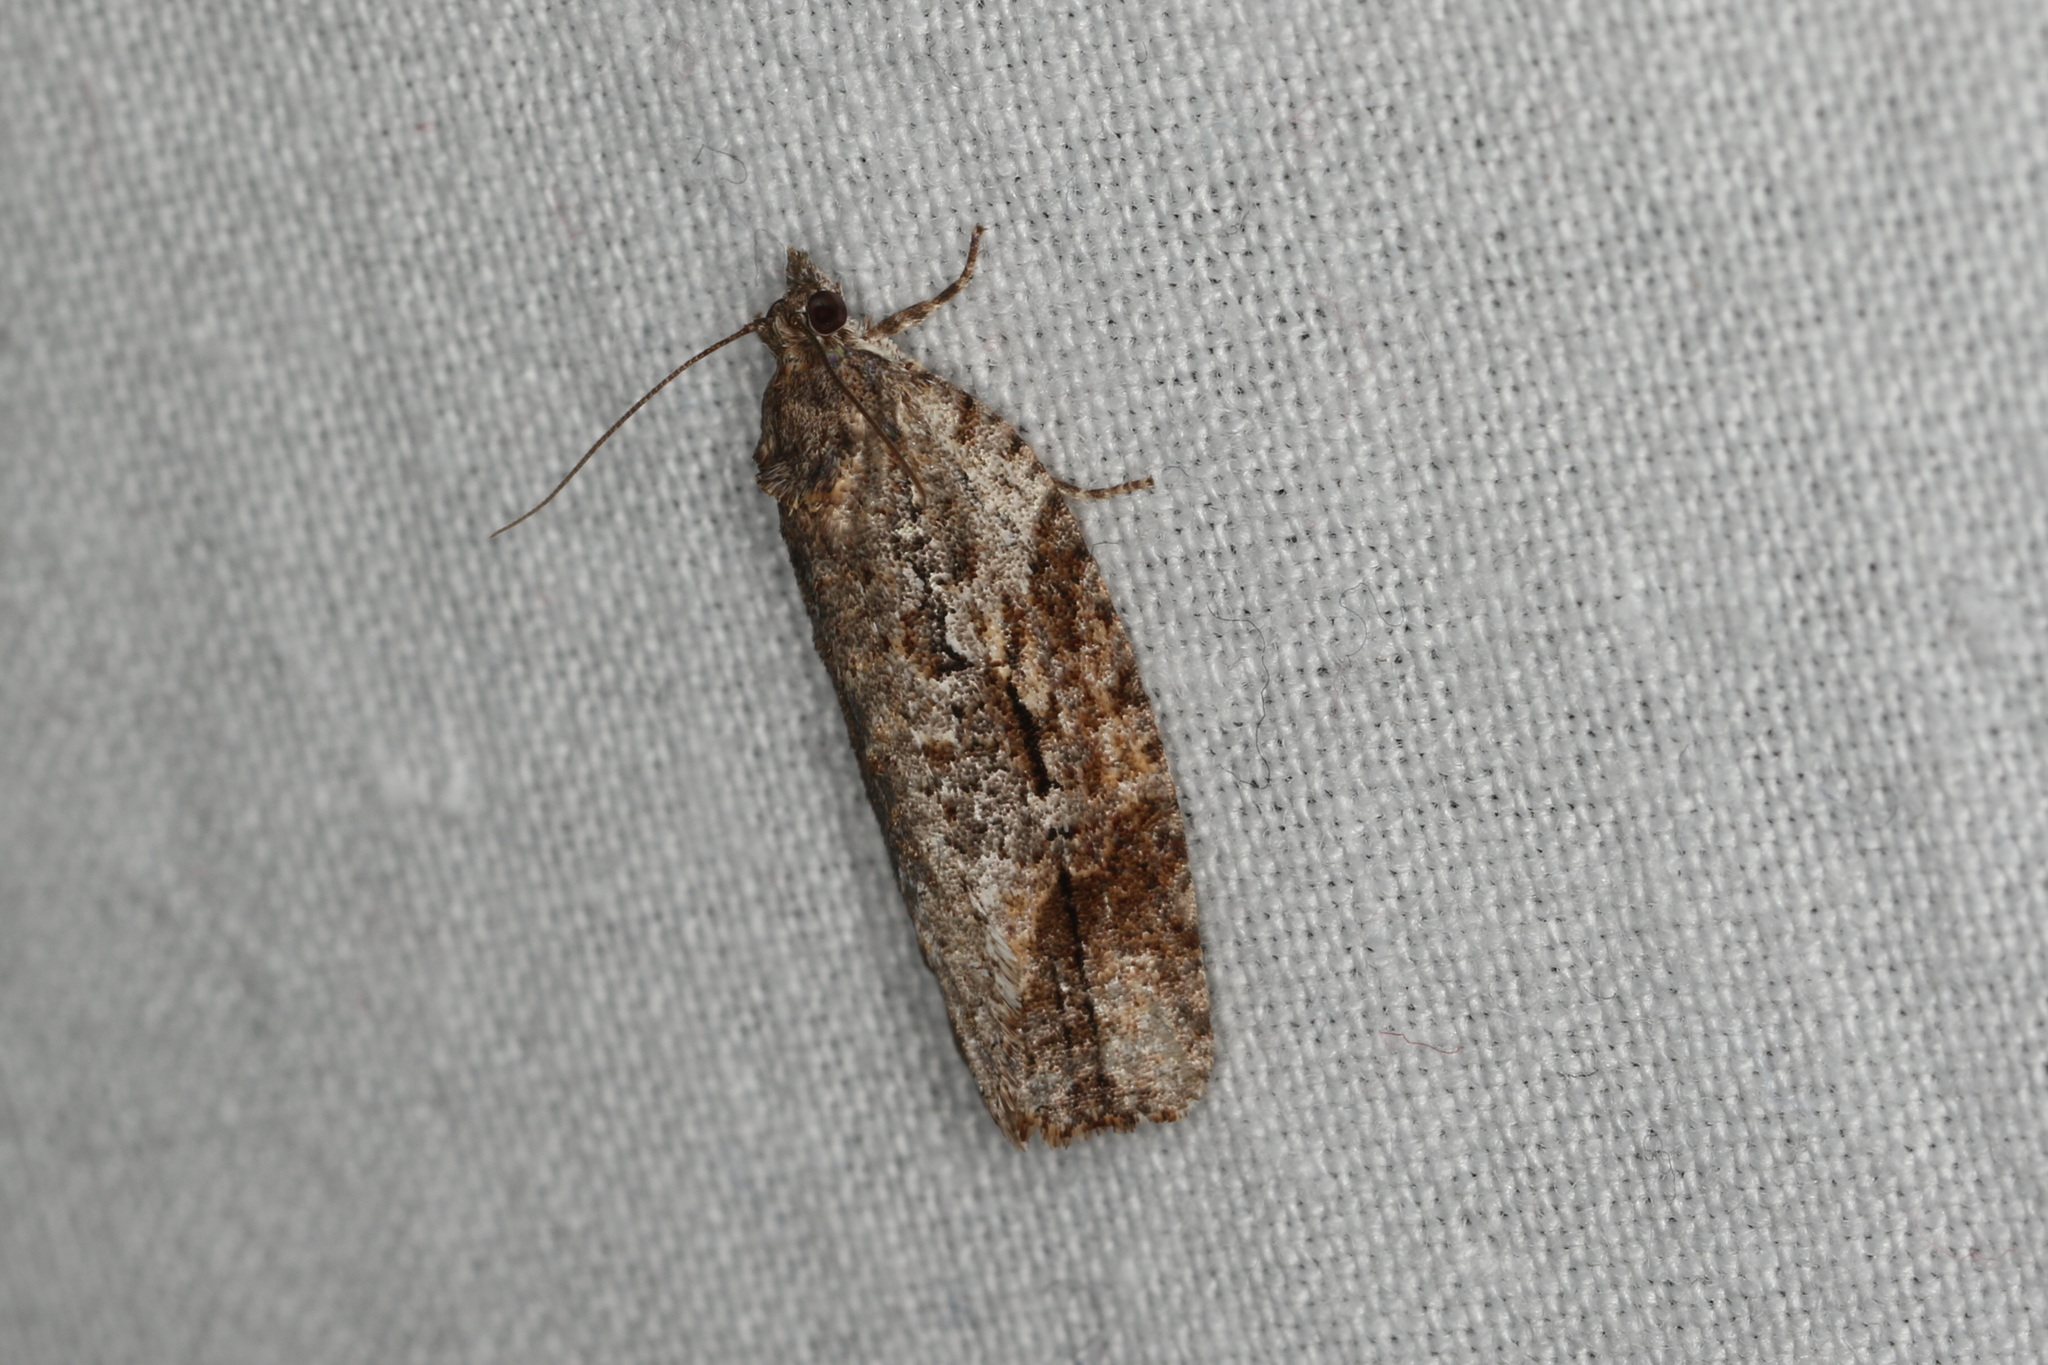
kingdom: Animalia
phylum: Arthropoda
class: Insecta
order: Lepidoptera
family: Tortricidae
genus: Thrincophora
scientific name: Thrincophora lignigerana
